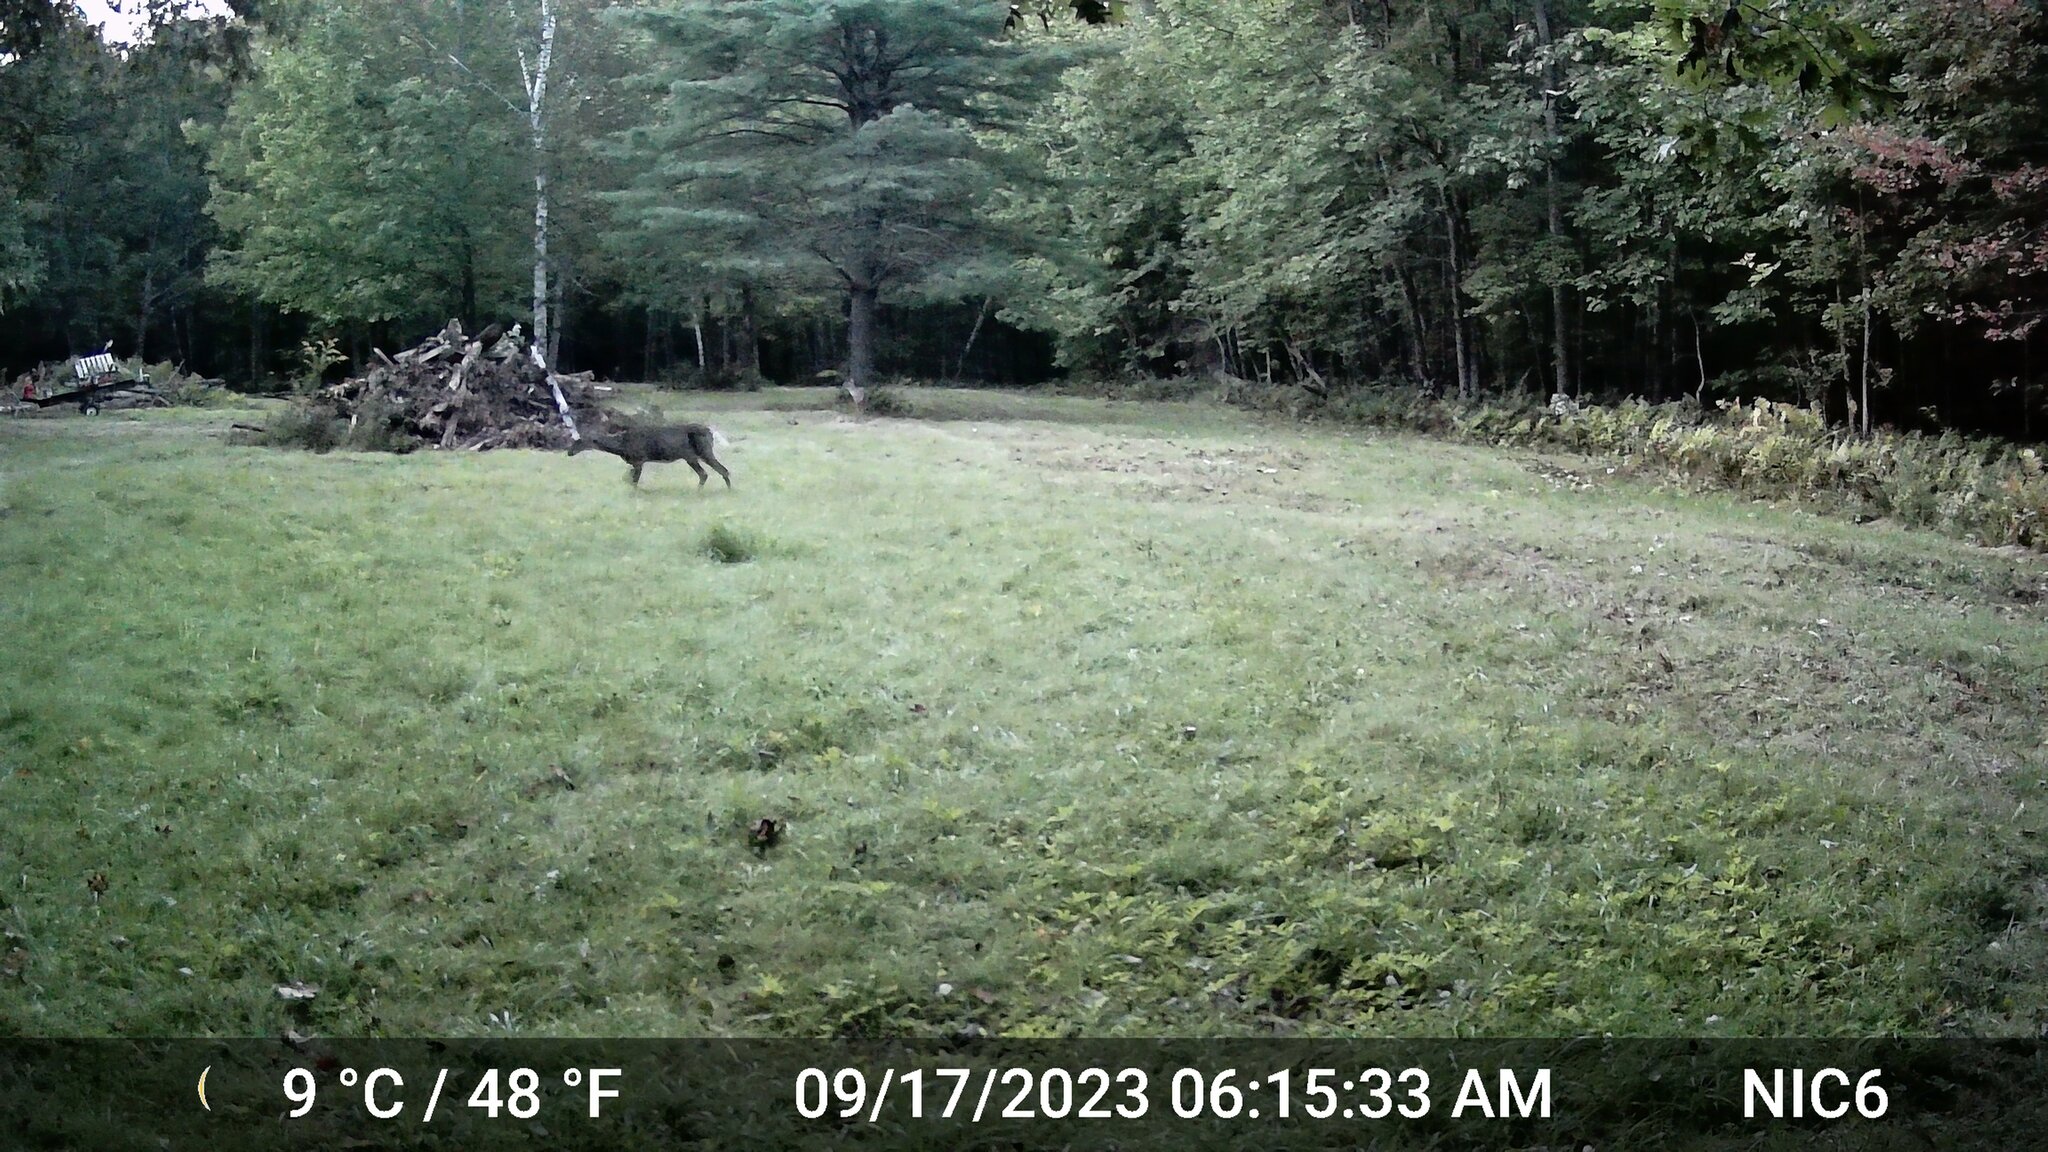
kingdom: Animalia
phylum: Chordata
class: Mammalia
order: Artiodactyla
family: Cervidae
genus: Odocoileus
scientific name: Odocoileus virginianus
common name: White-tailed deer
